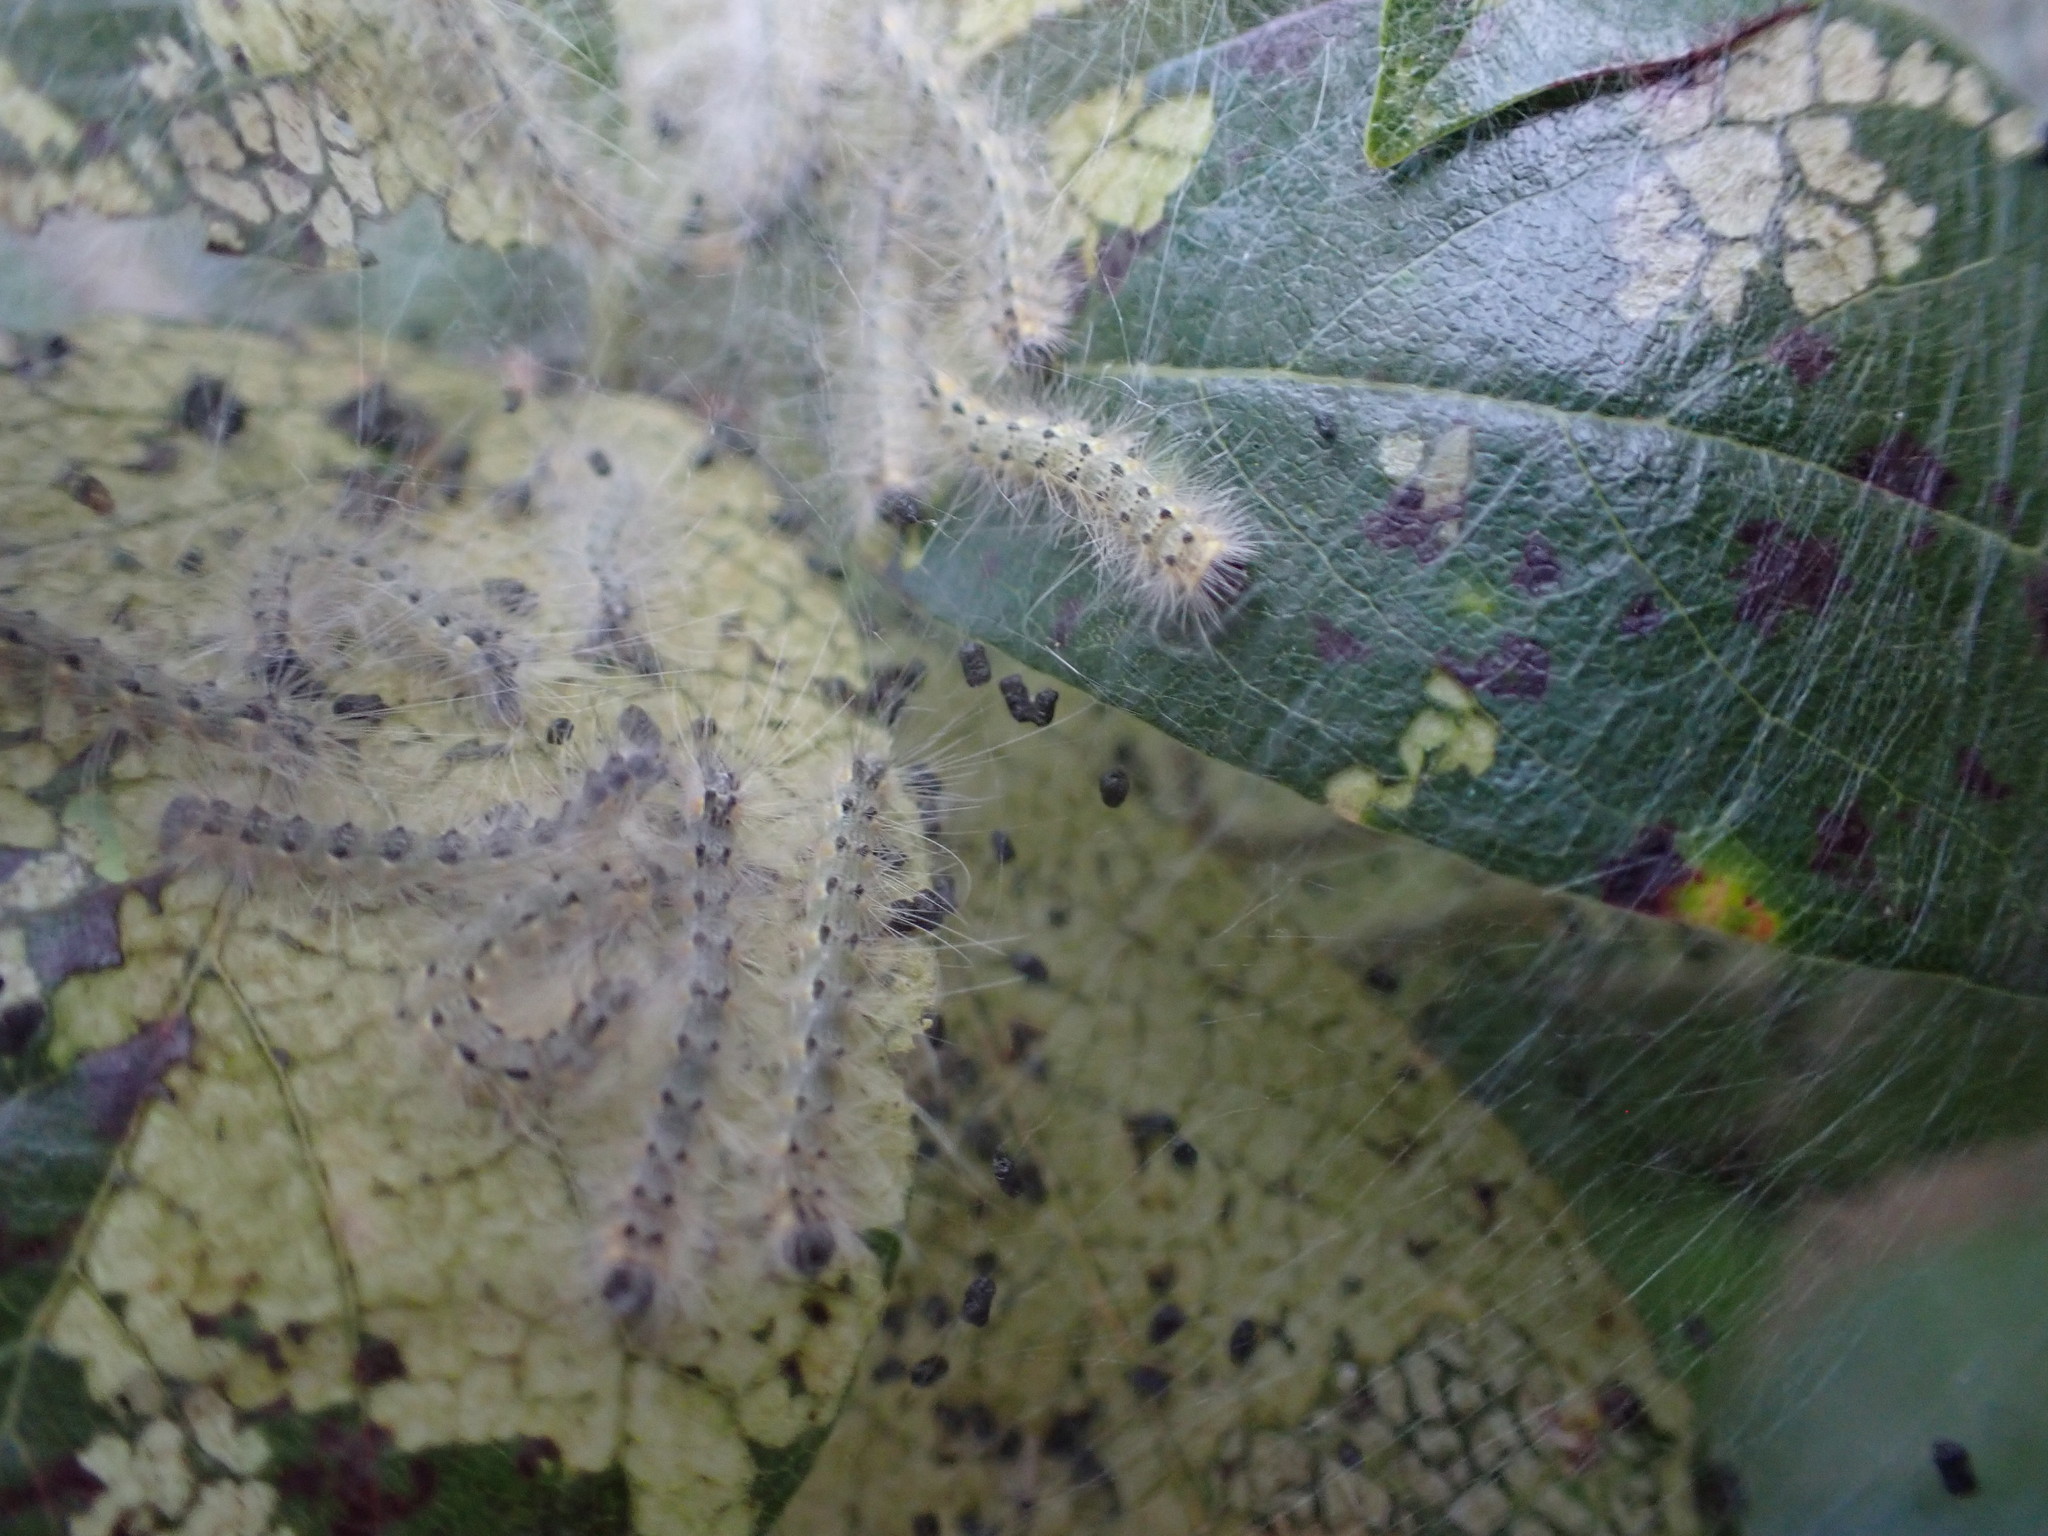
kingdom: Animalia
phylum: Arthropoda
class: Insecta
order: Lepidoptera
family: Erebidae
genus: Hyphantria
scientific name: Hyphantria cunea
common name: American white moth
